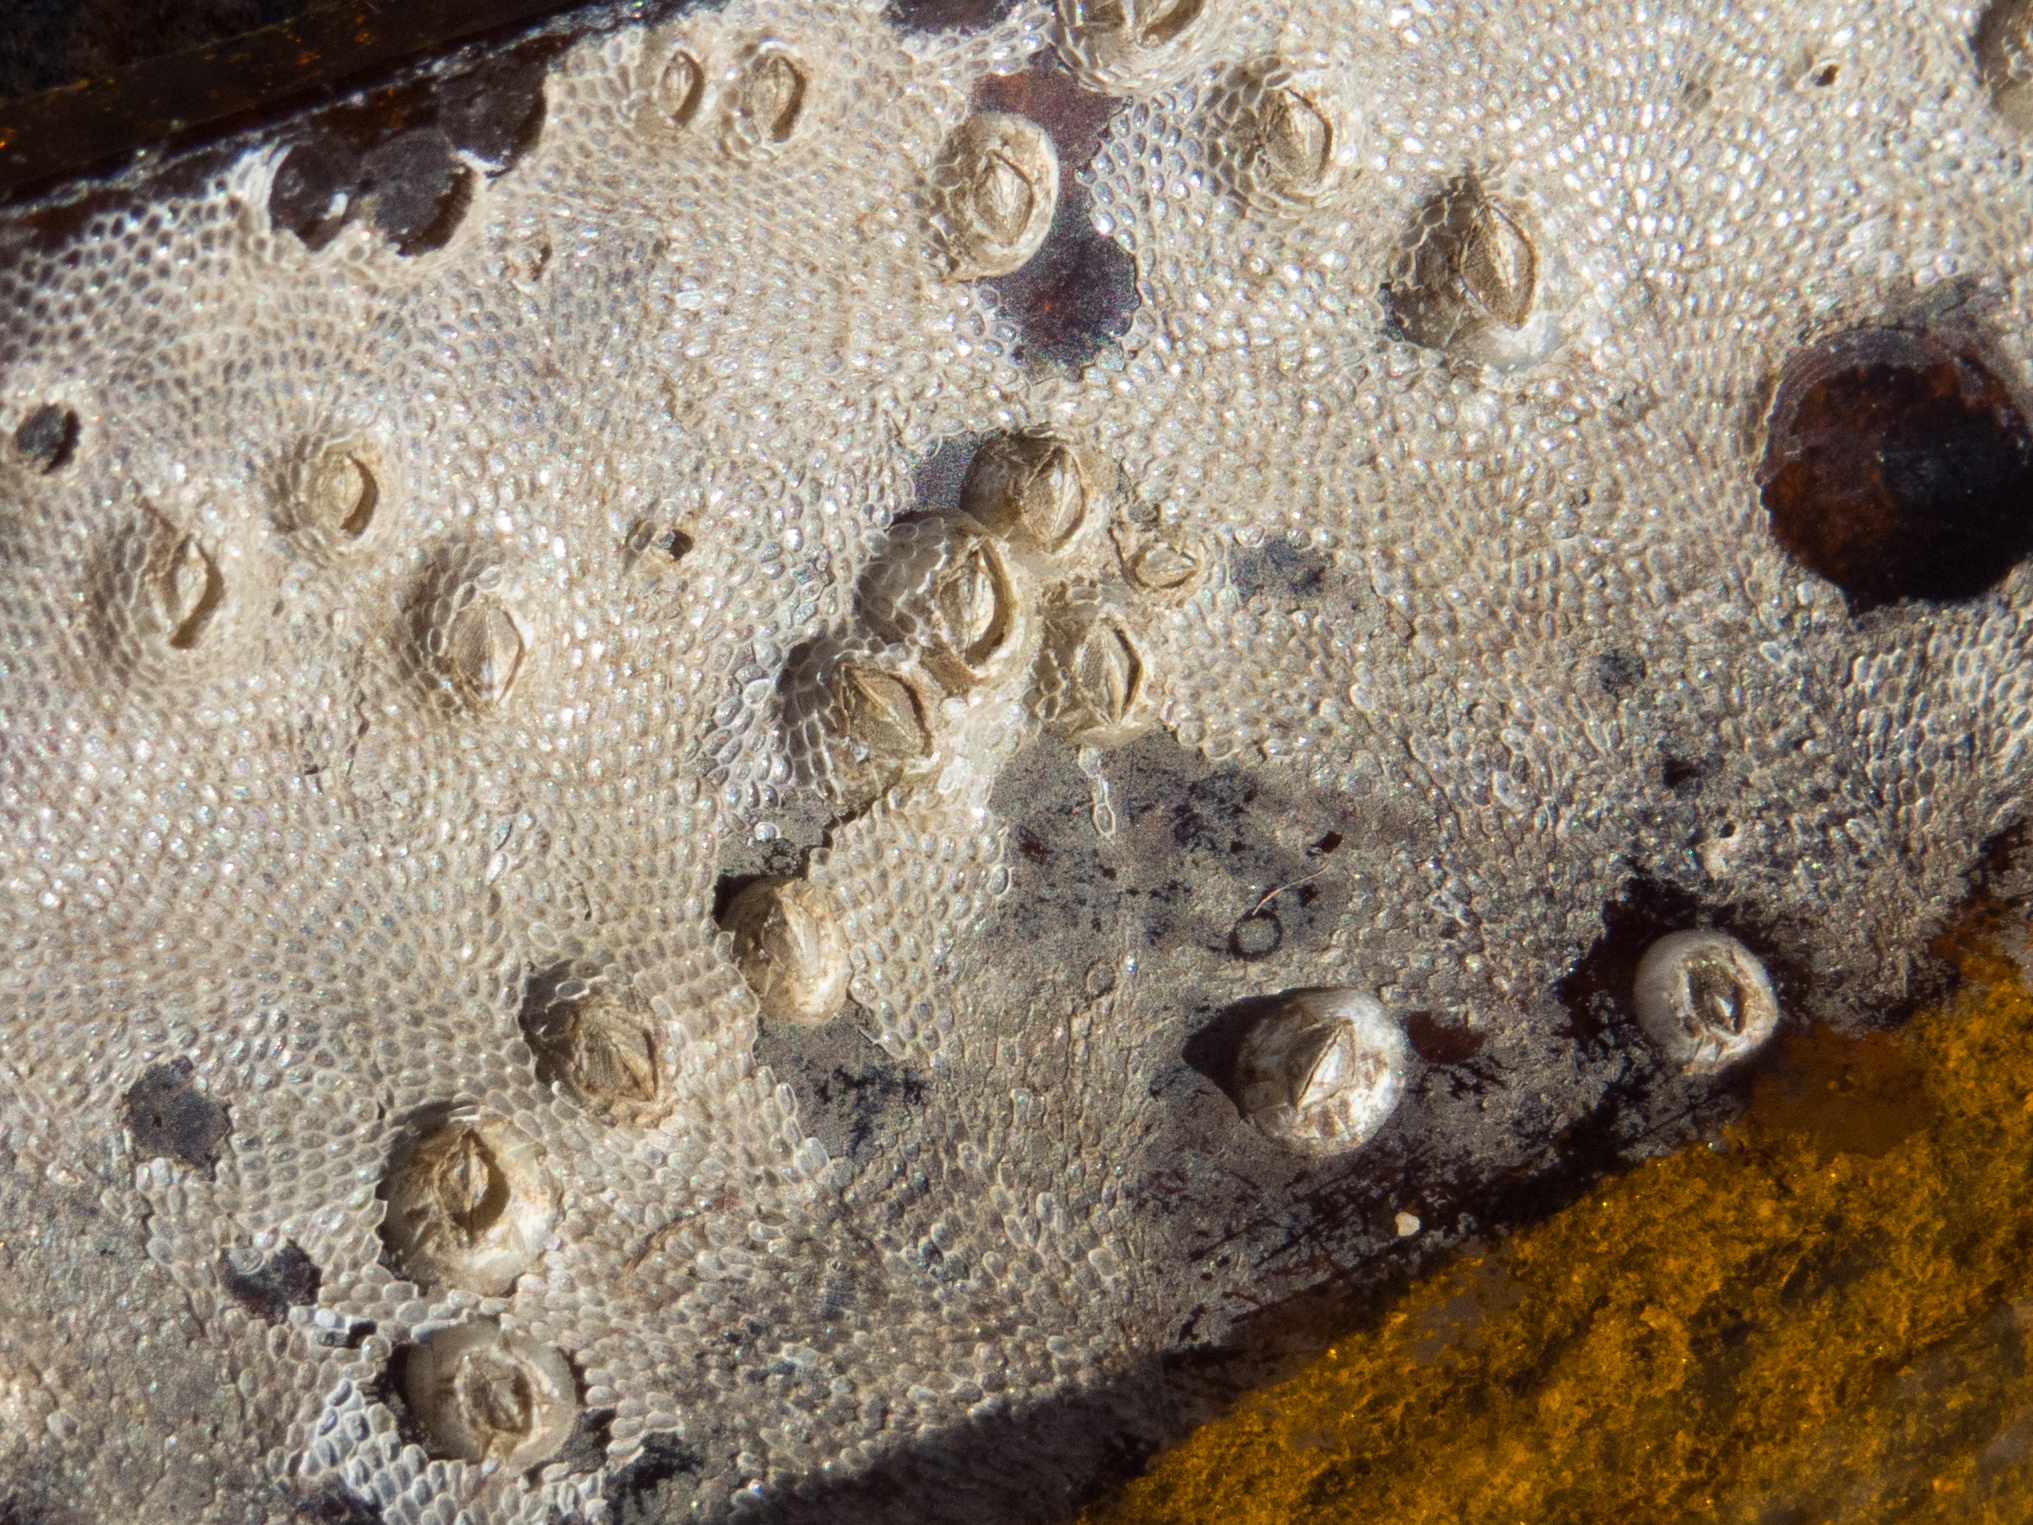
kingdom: Animalia
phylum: Arthropoda
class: Maxillopoda
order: Sessilia
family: Balanidae
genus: Amphibalanus
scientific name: Amphibalanus improvisus
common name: Bay barnacle
